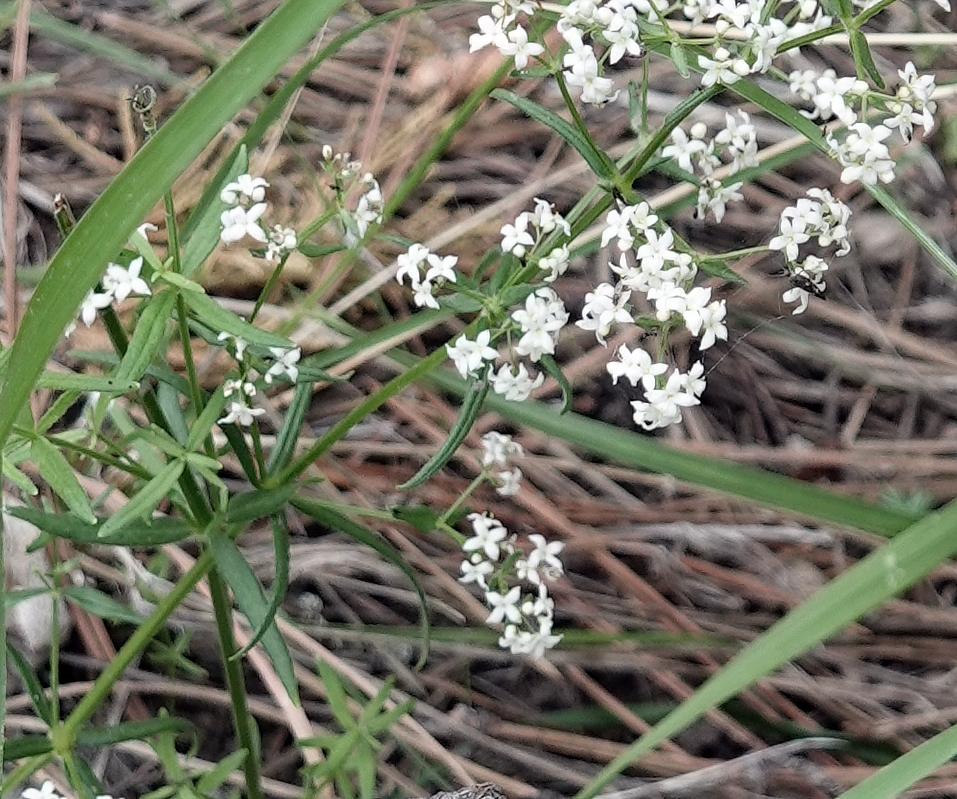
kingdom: Plantae
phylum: Tracheophyta
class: Magnoliopsida
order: Gentianales
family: Rubiaceae
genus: Galium
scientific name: Galium boreale
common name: Northern bedstraw
